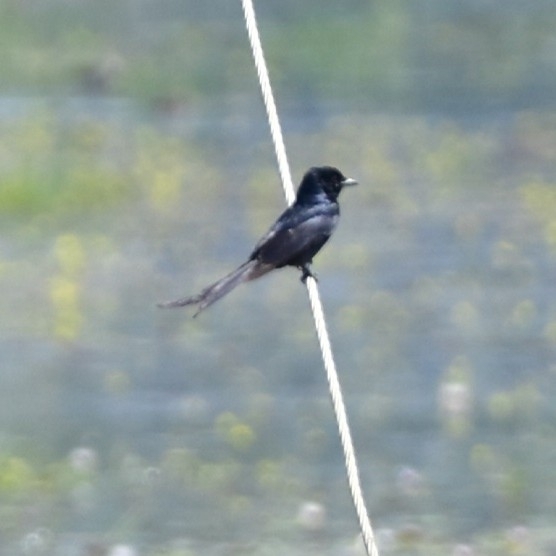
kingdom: Animalia
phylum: Chordata
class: Aves
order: Passeriformes
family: Dicruridae
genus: Dicrurus
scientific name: Dicrurus macrocercus
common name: Black drongo
